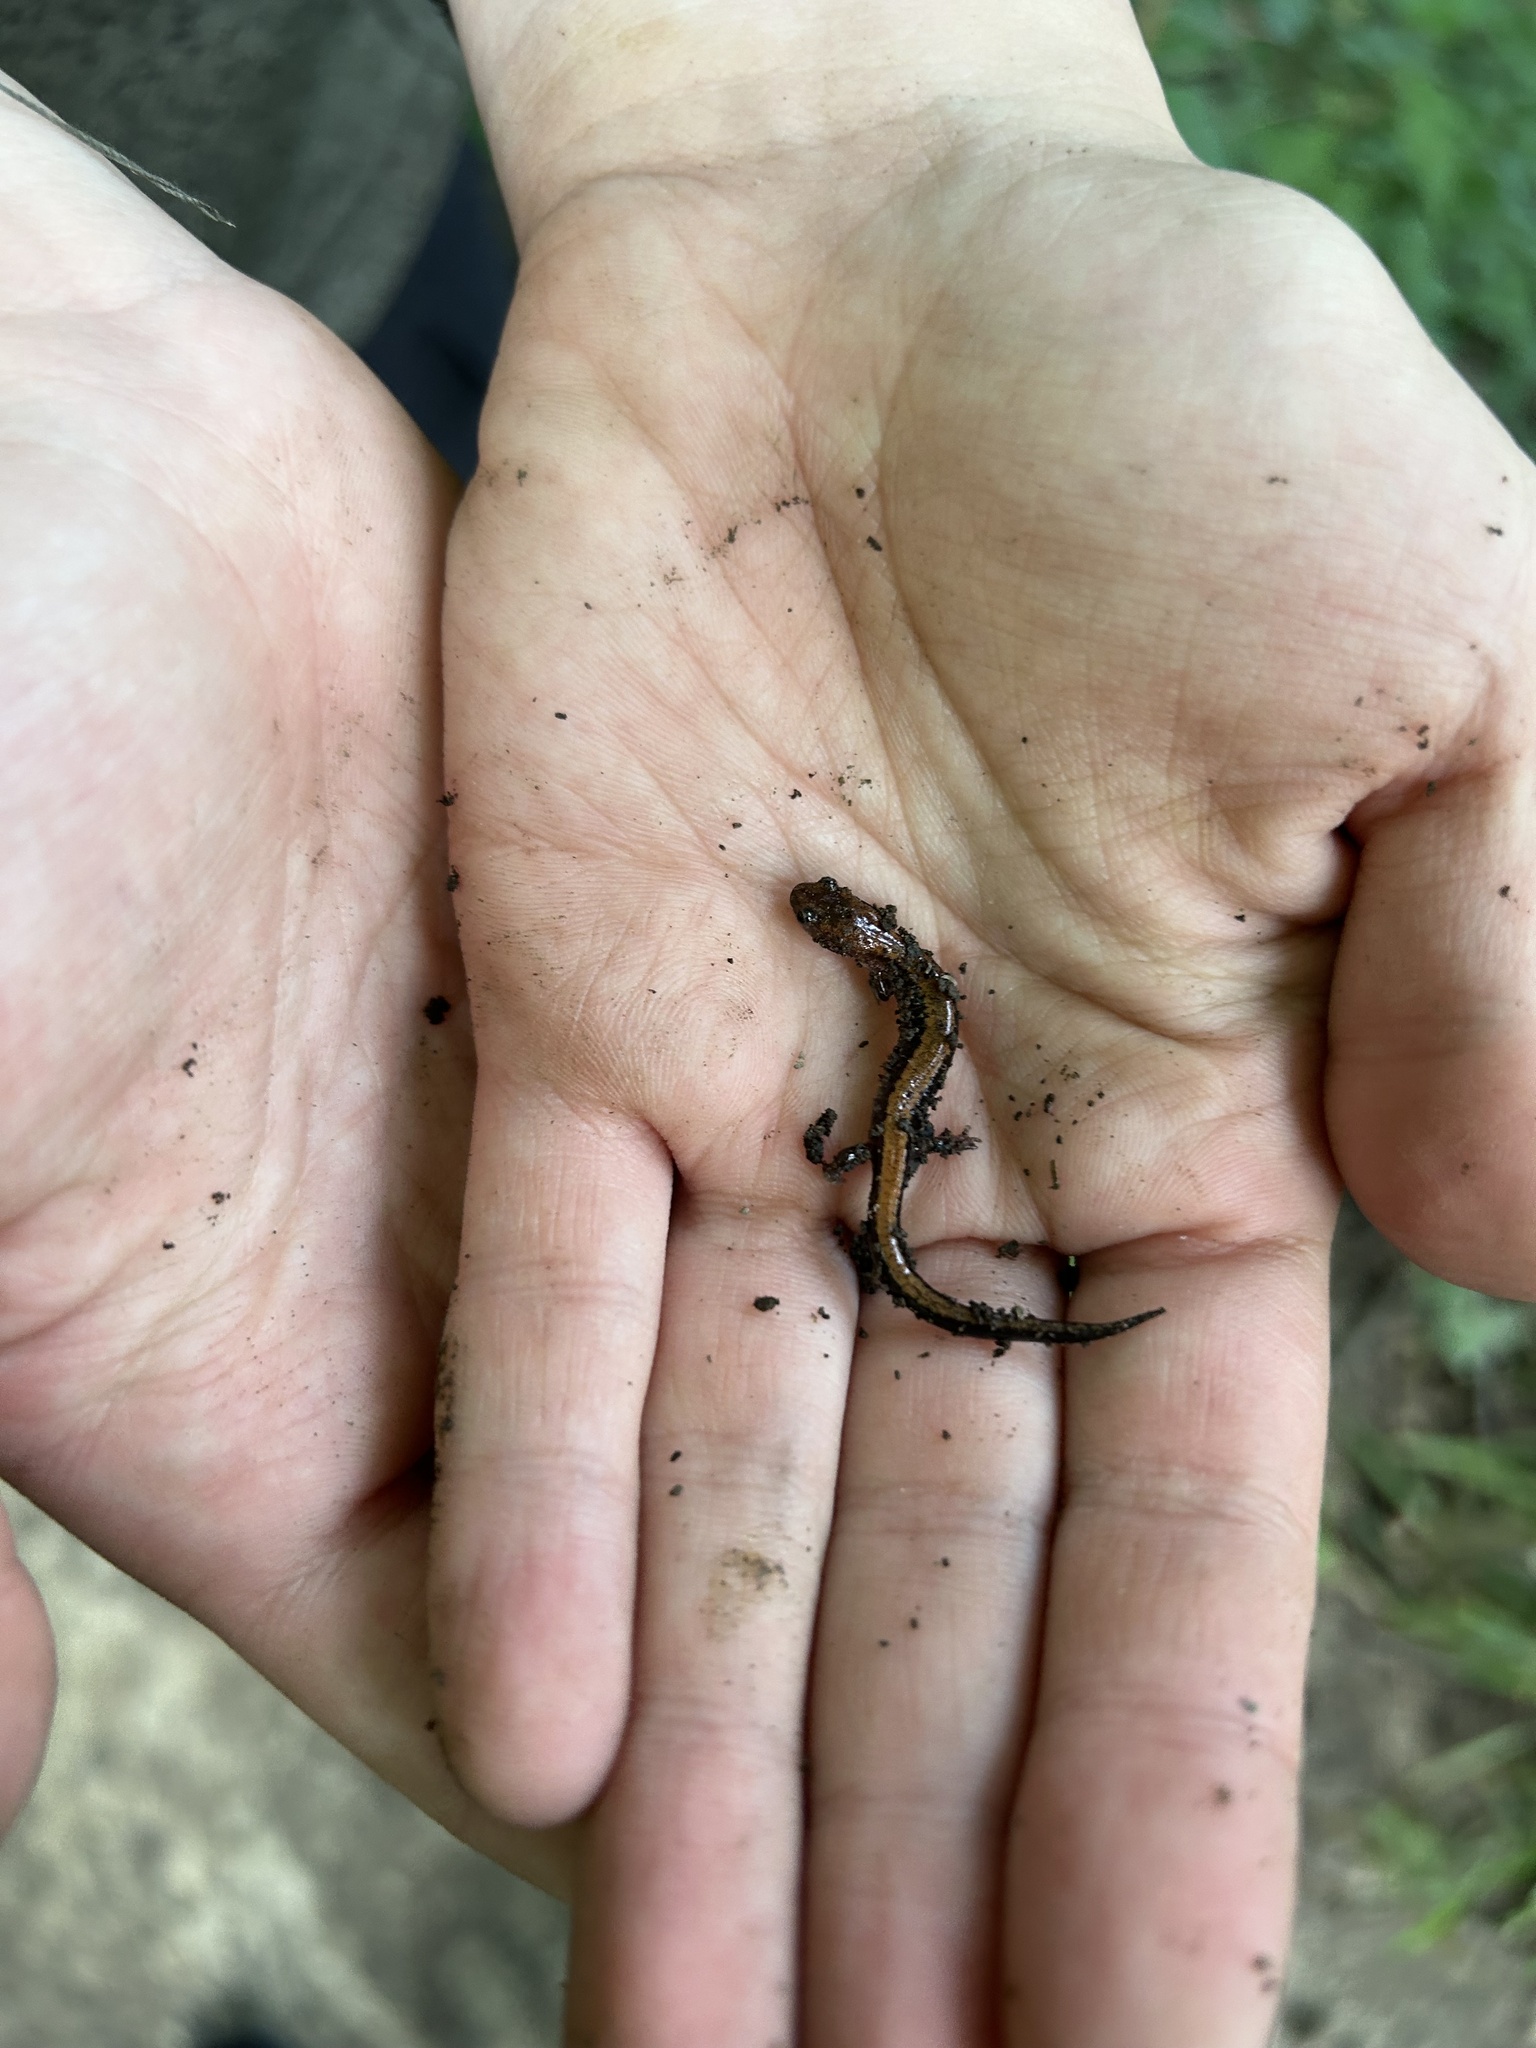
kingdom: Animalia
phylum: Chordata
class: Amphibia
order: Caudata
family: Plethodontidae
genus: Plethodon
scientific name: Plethodon cinereus
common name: Redback salamander
